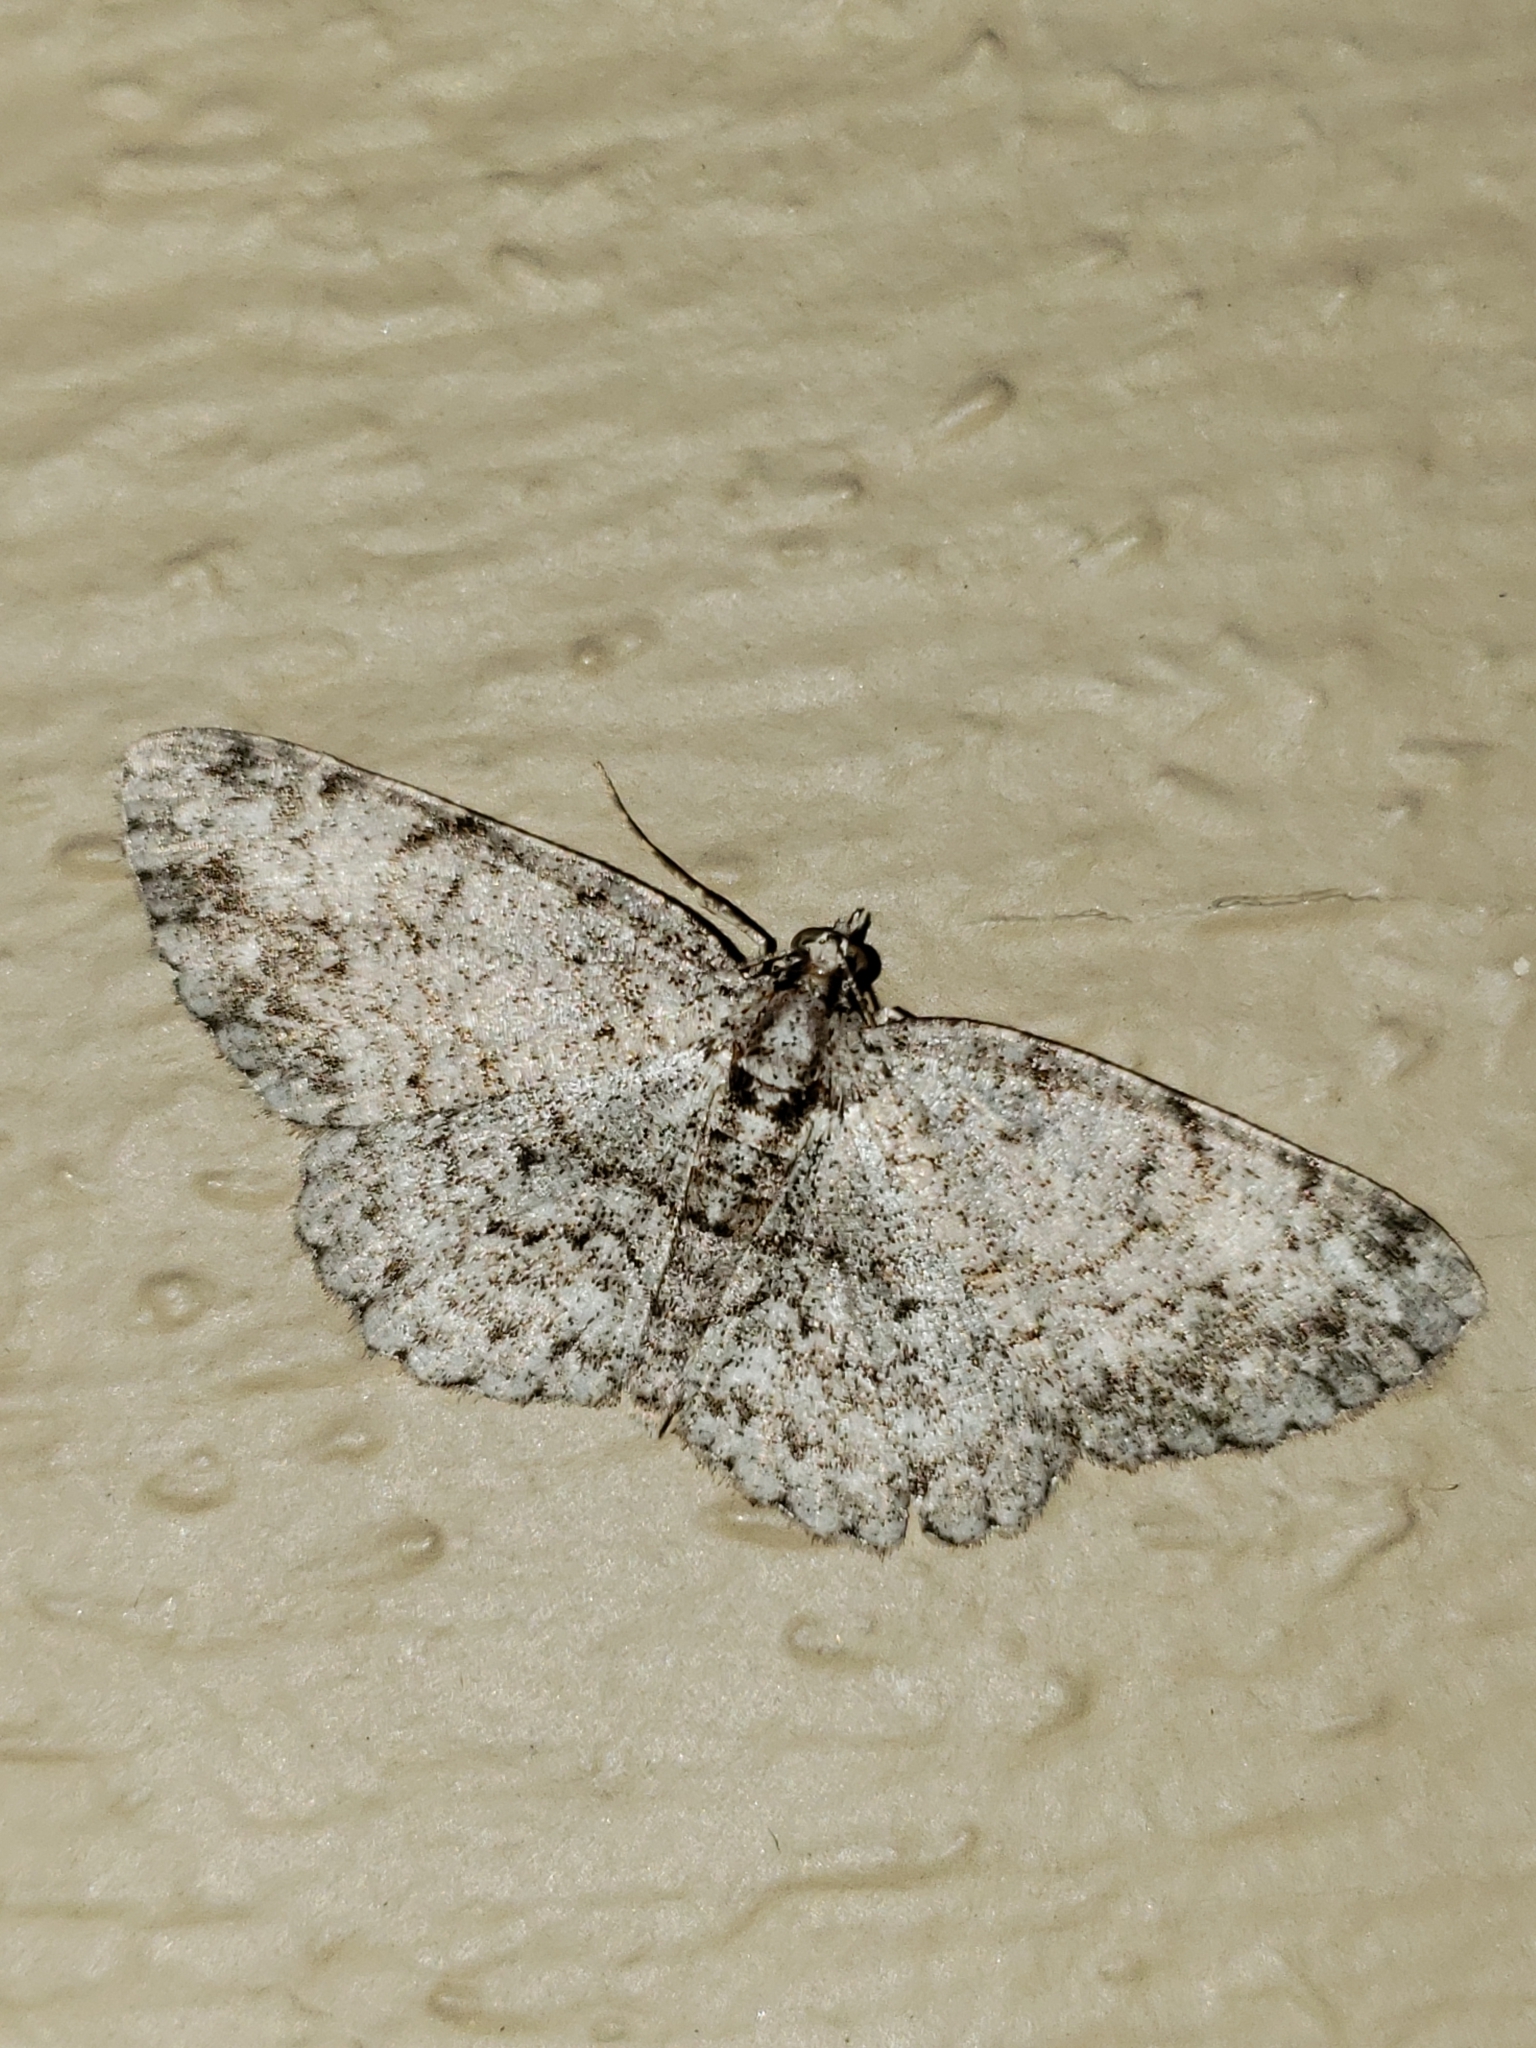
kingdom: Animalia
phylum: Arthropoda
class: Insecta
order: Lepidoptera
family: Geometridae
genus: Protoboarmia
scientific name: Protoboarmia porcelaria
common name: Porcelain gray
